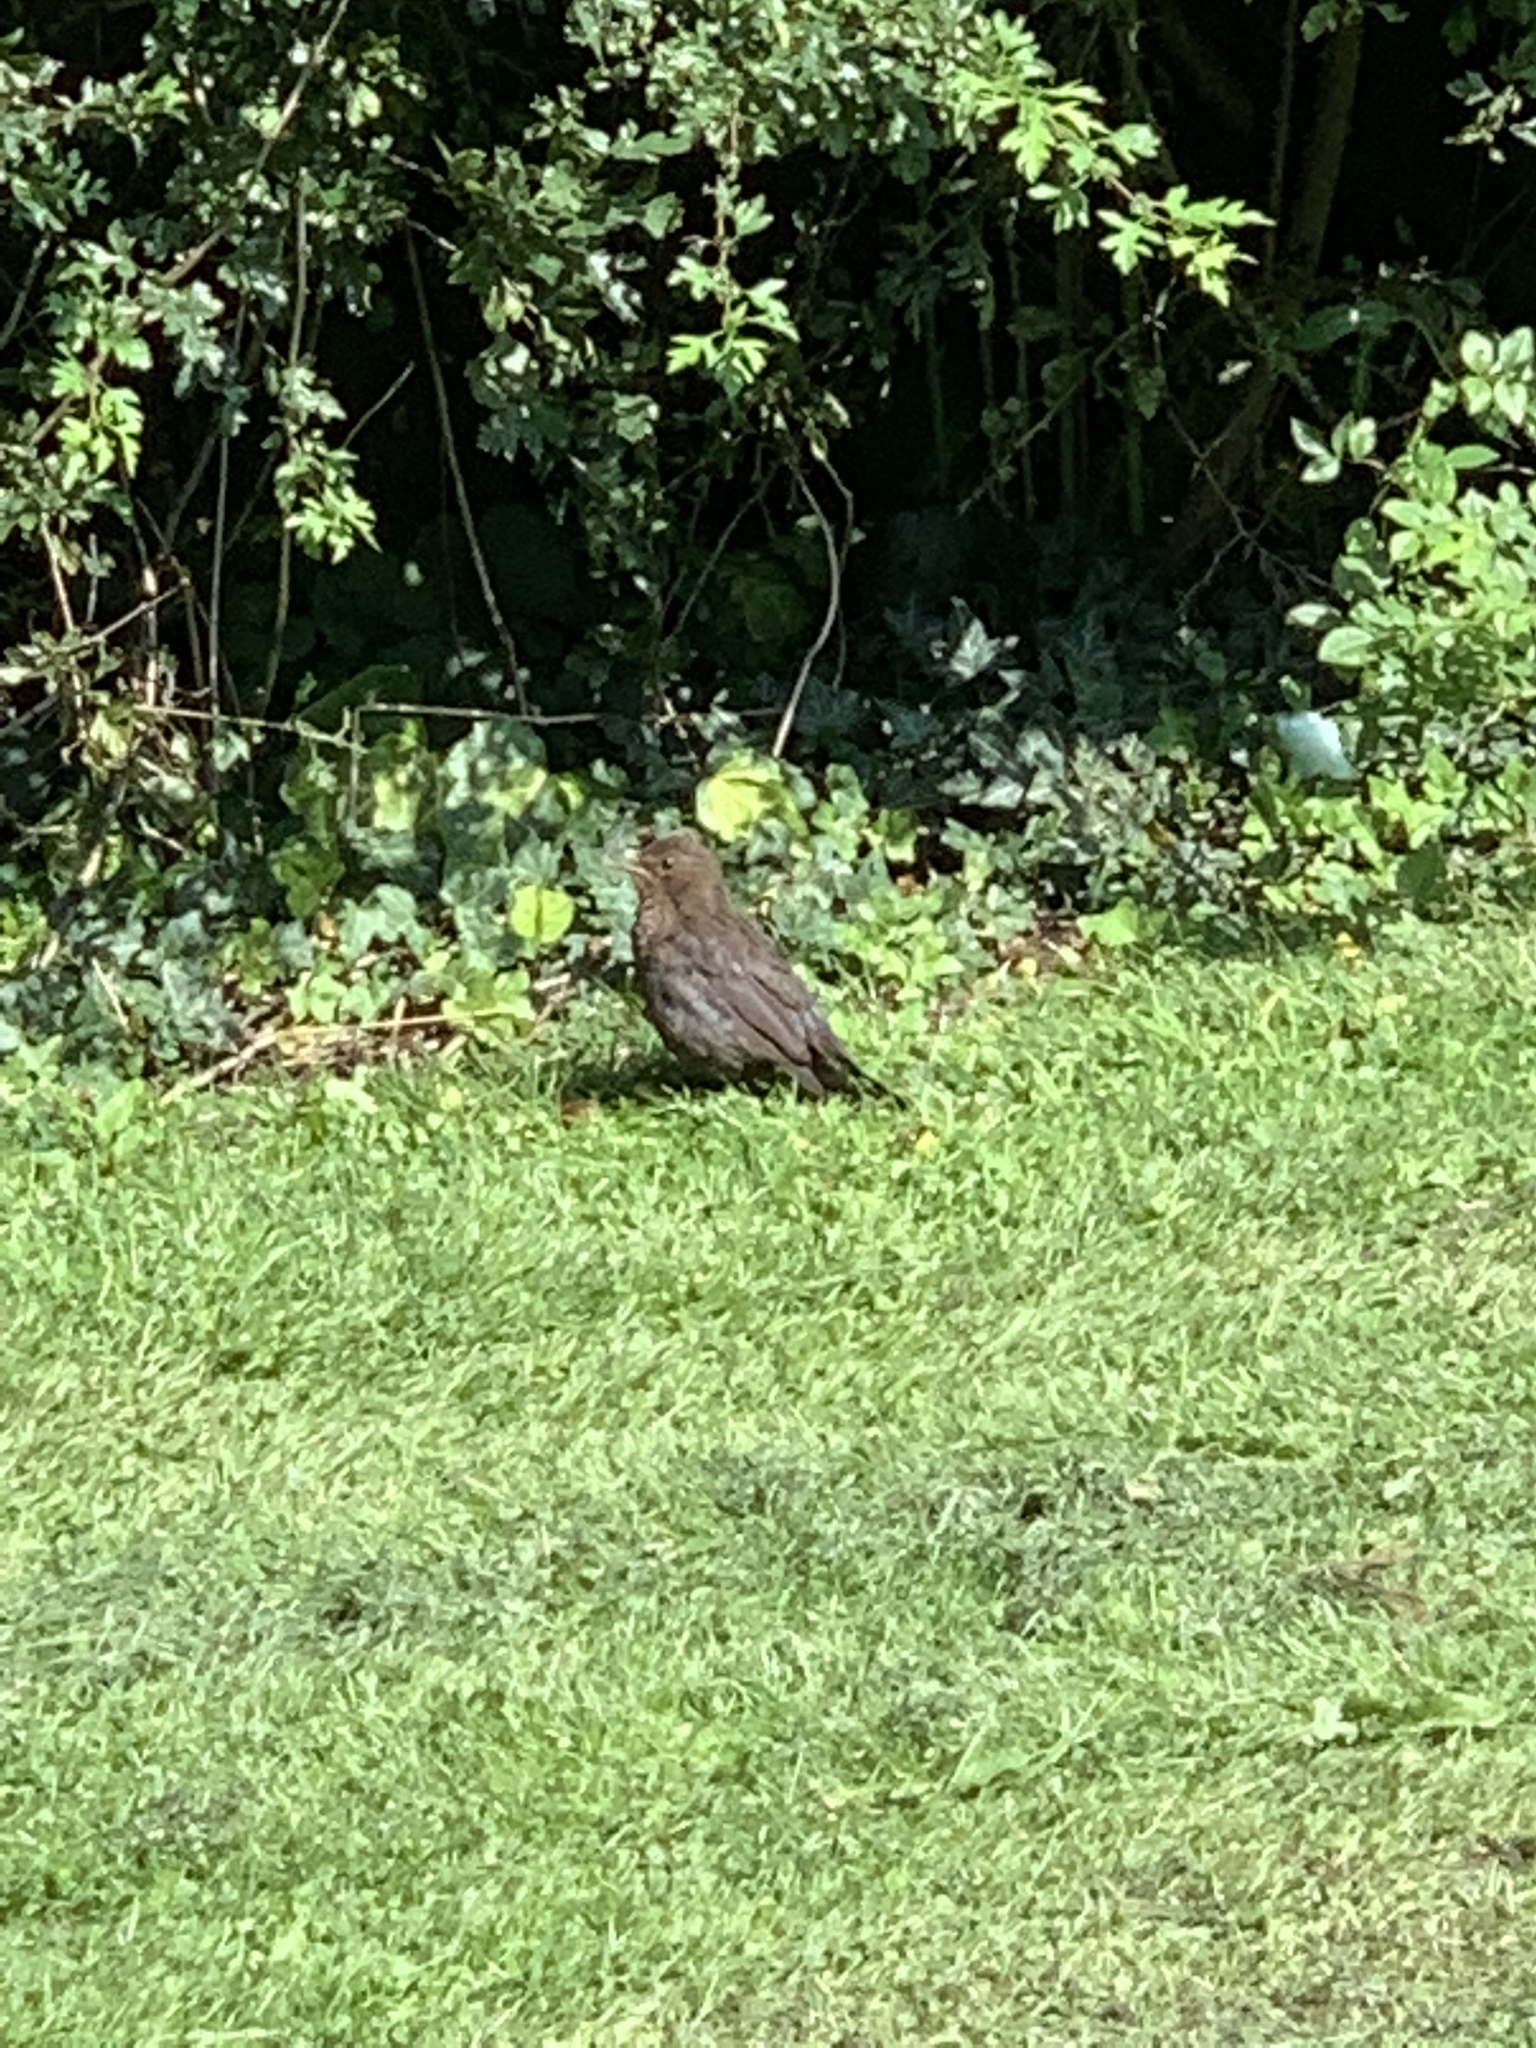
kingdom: Animalia
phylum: Chordata
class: Aves
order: Passeriformes
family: Turdidae
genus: Turdus
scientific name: Turdus merula
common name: Common blackbird
